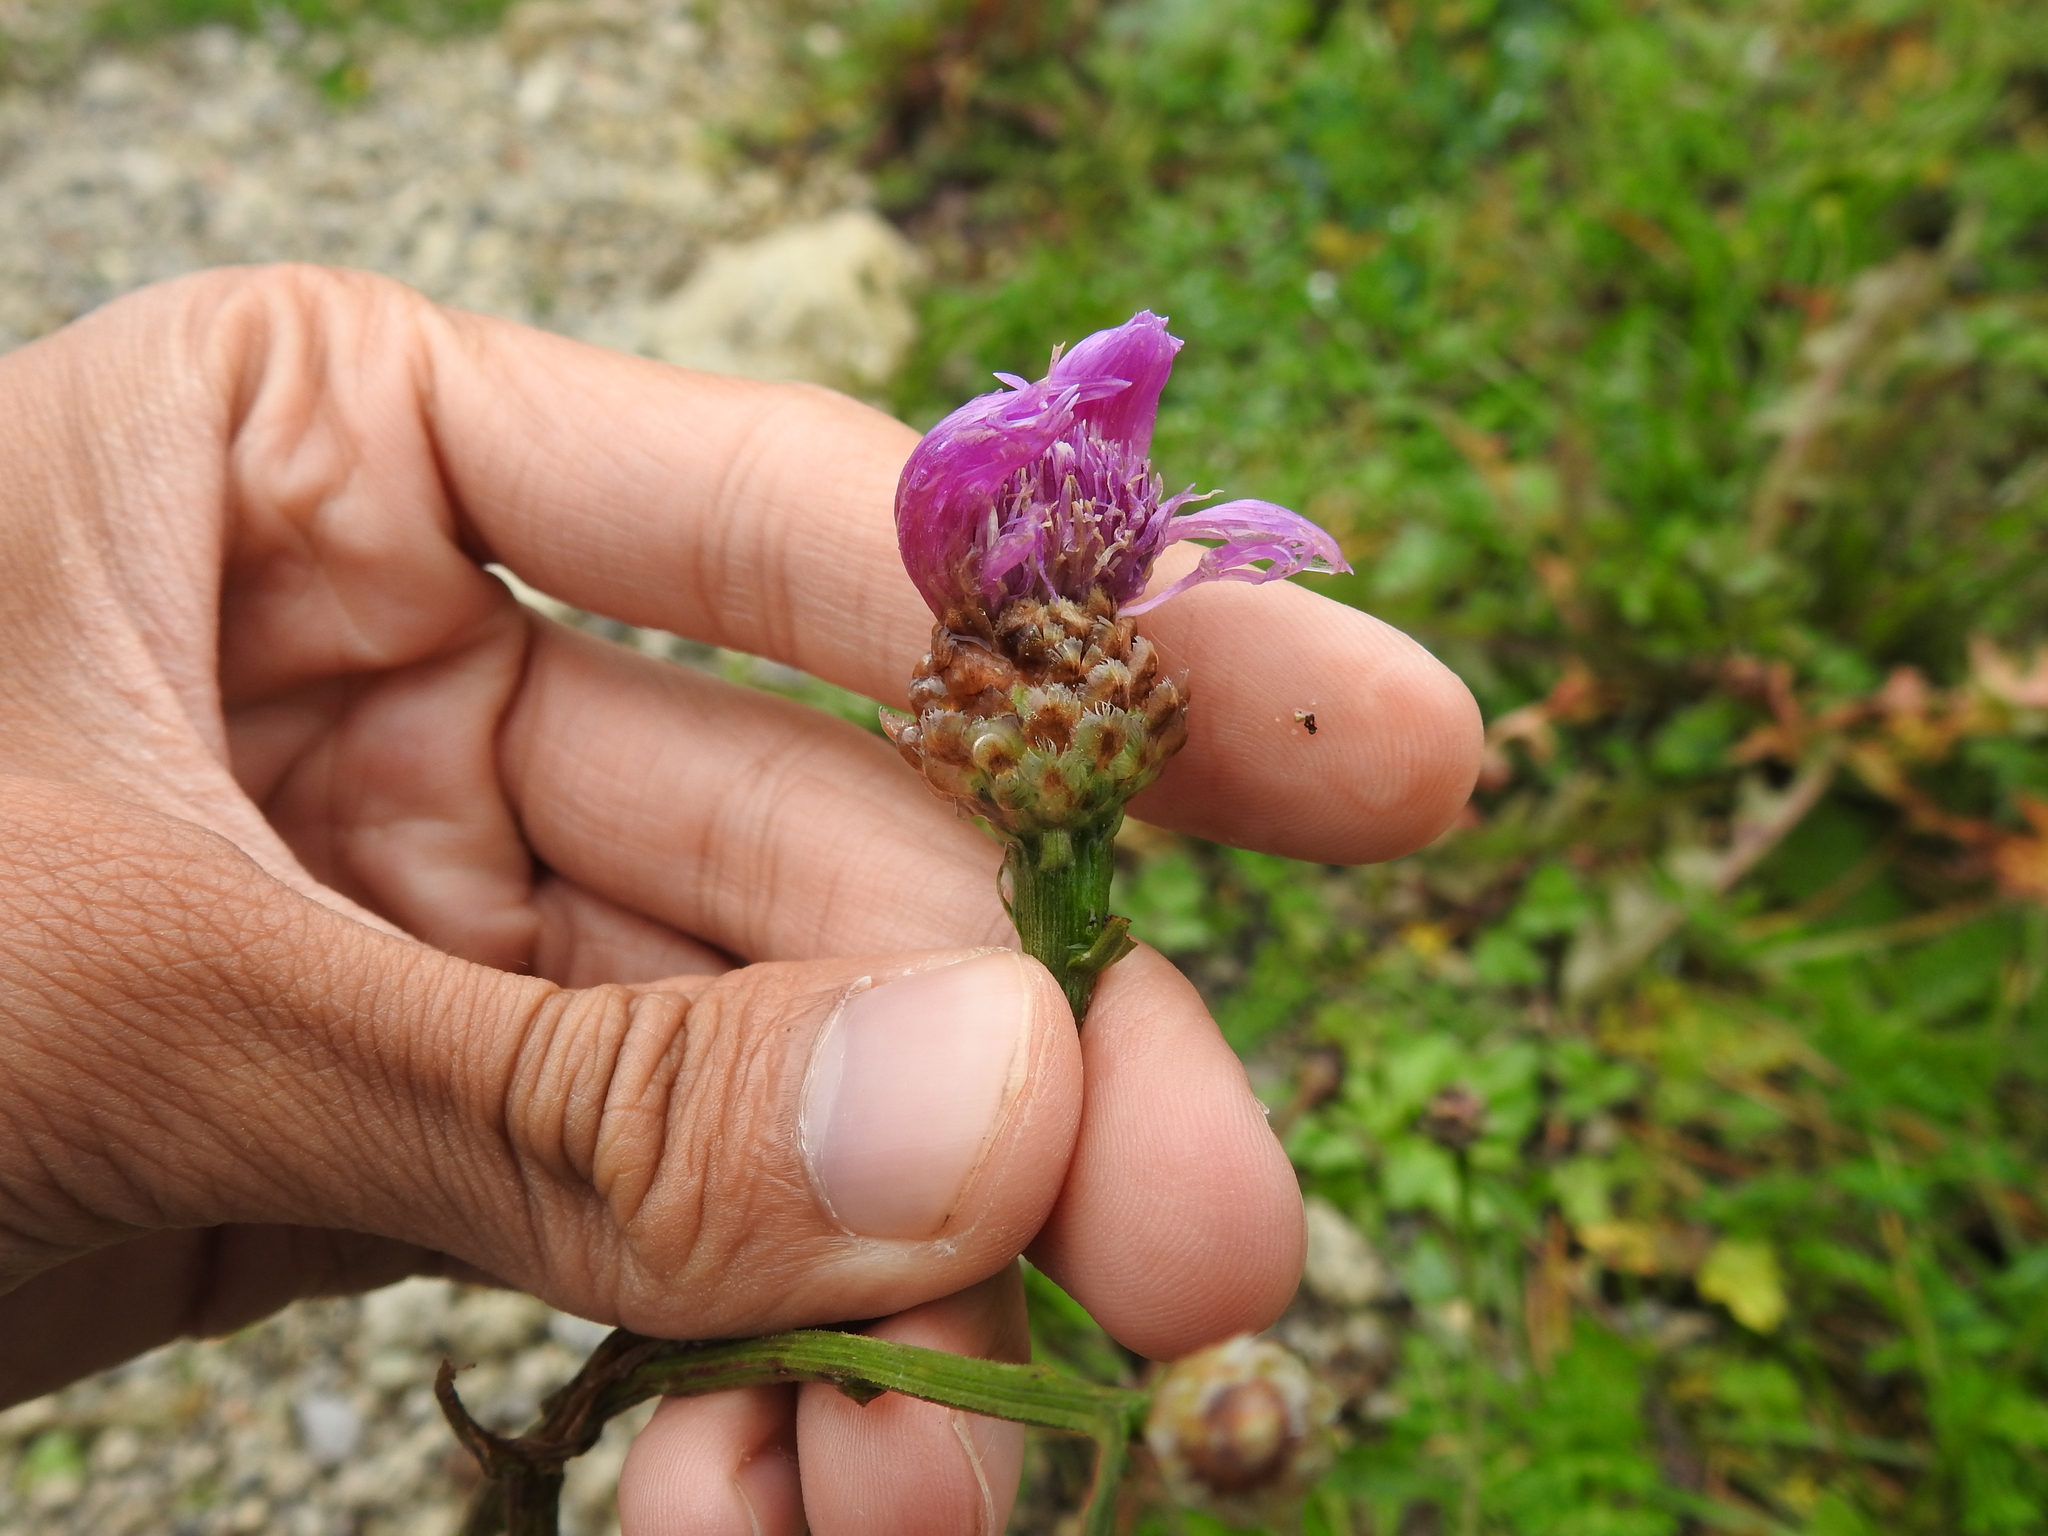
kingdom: Plantae
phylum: Tracheophyta
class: Magnoliopsida
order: Asterales
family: Asteraceae
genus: Centaurea
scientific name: Centaurea jacea
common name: Brown knapweed
